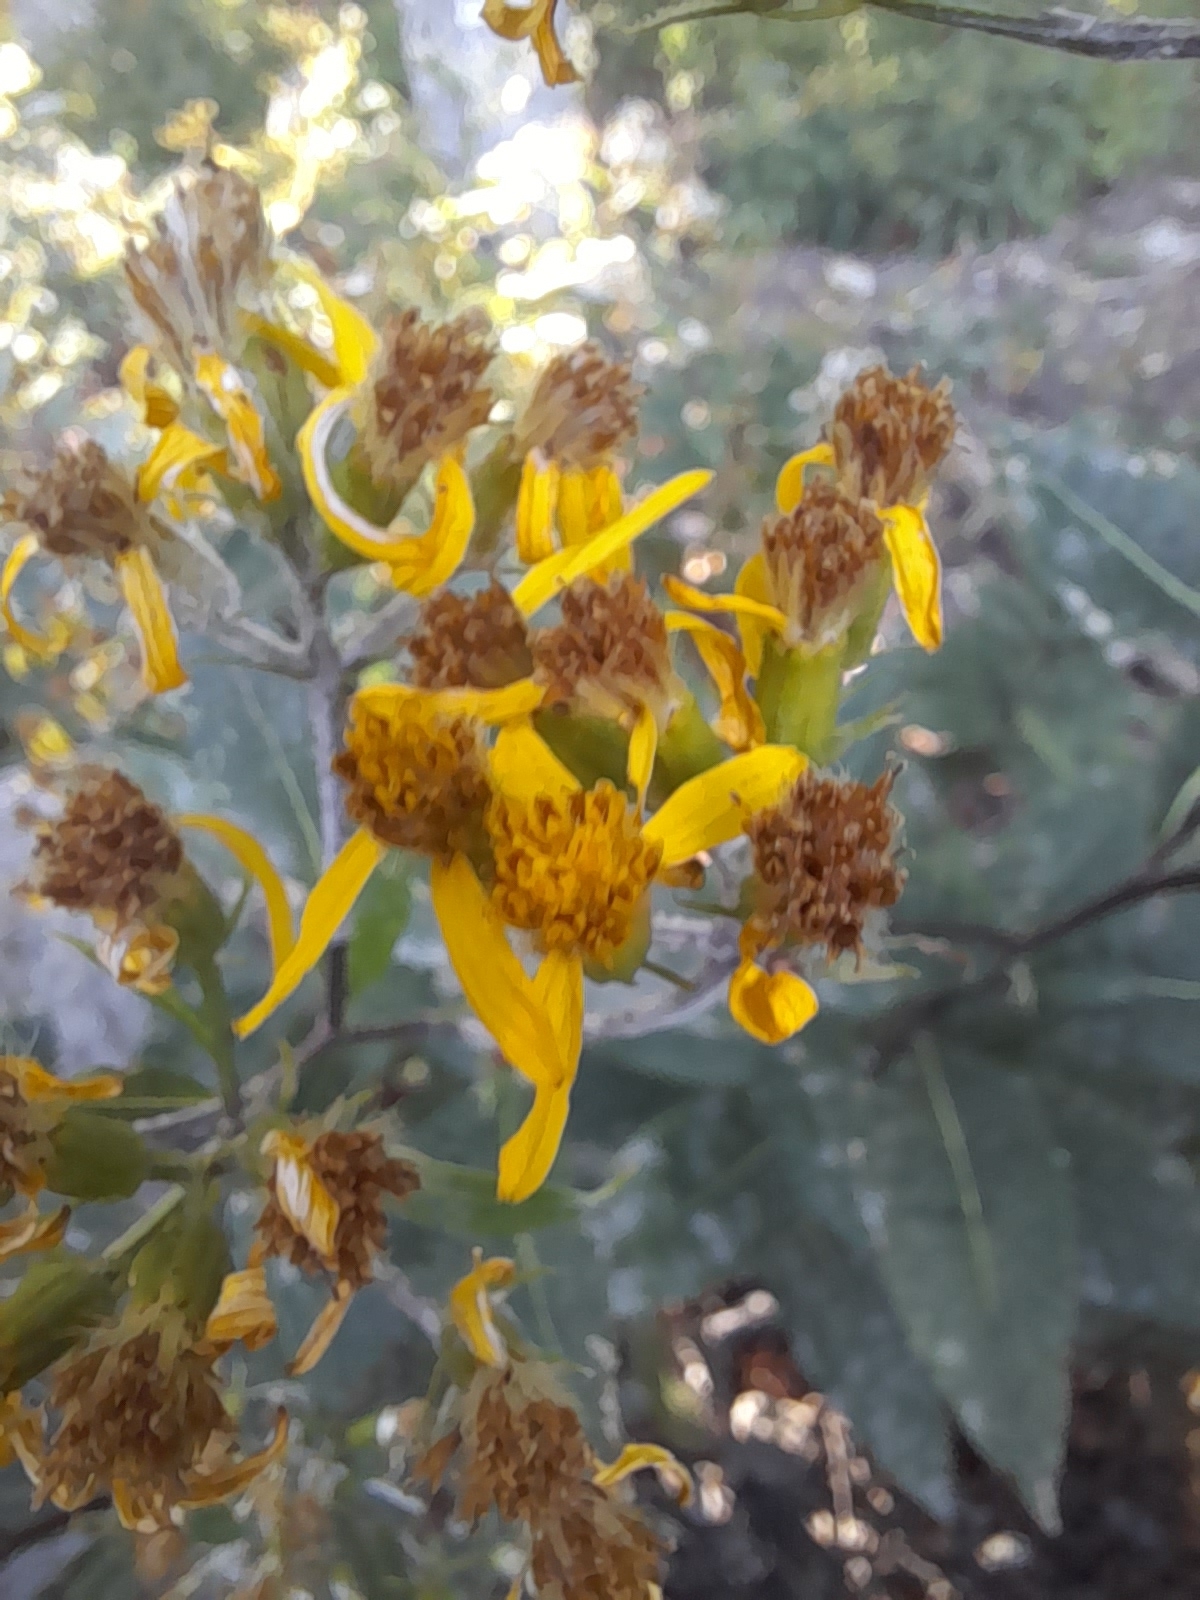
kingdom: Plantae
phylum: Tracheophyta
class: Magnoliopsida
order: Asterales
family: Asteraceae
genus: Senecio
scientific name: Senecio ovatus
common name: Wood ragwort
